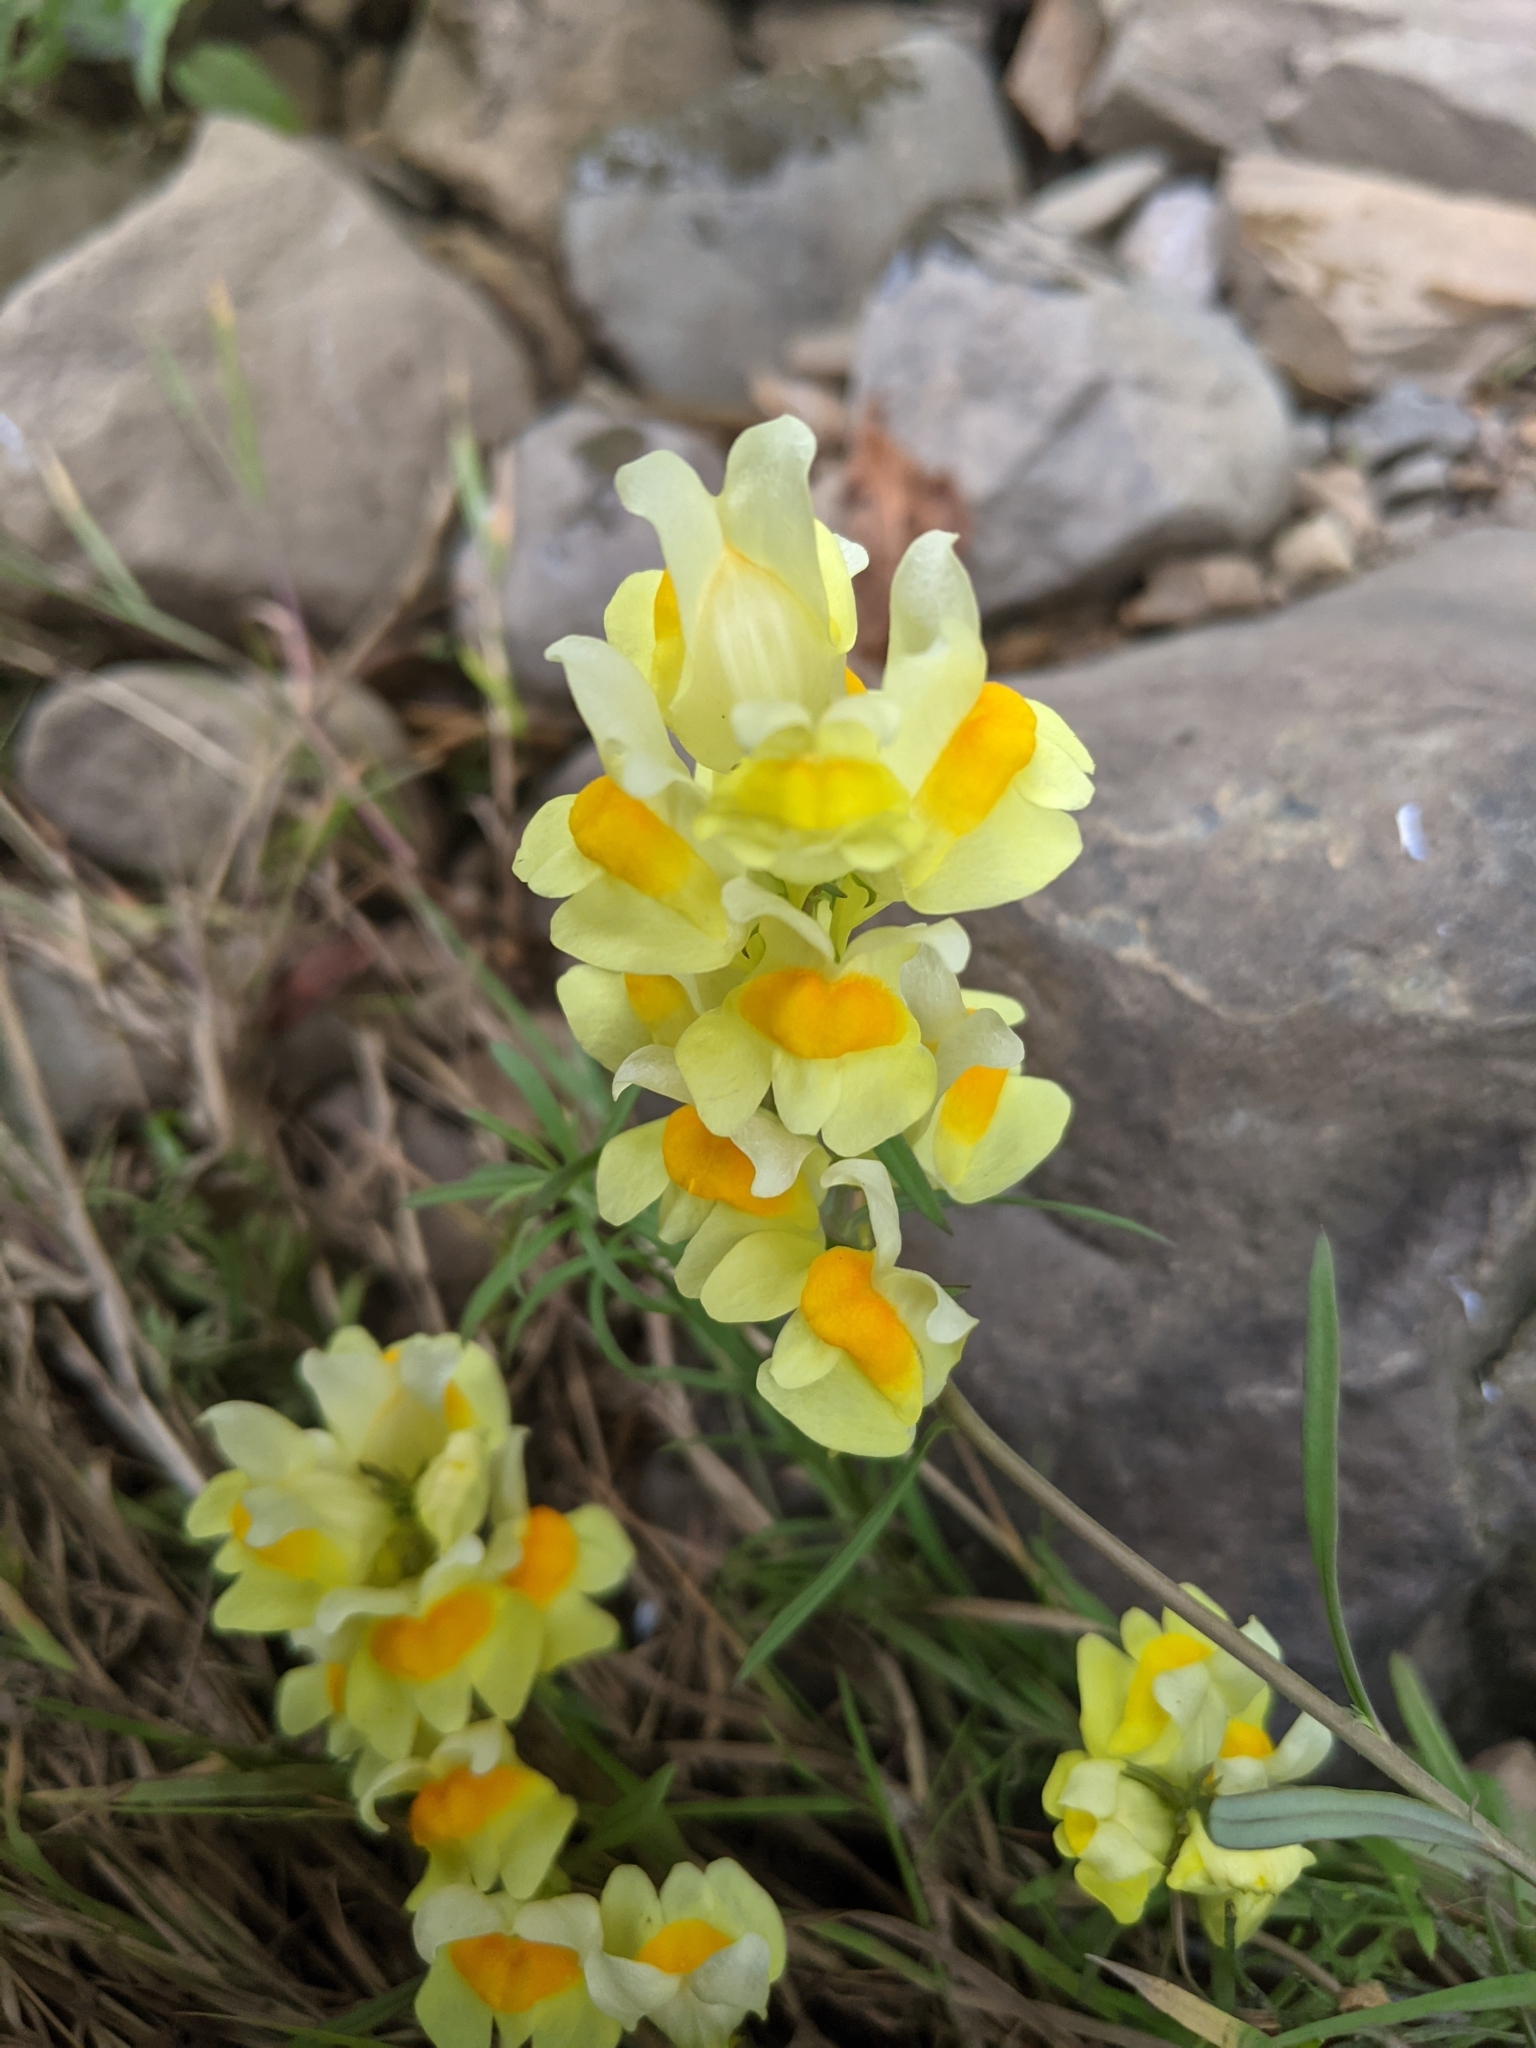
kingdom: Plantae
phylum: Tracheophyta
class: Magnoliopsida
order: Lamiales
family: Plantaginaceae
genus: Linaria
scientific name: Linaria vulgaris
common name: Butter and eggs
